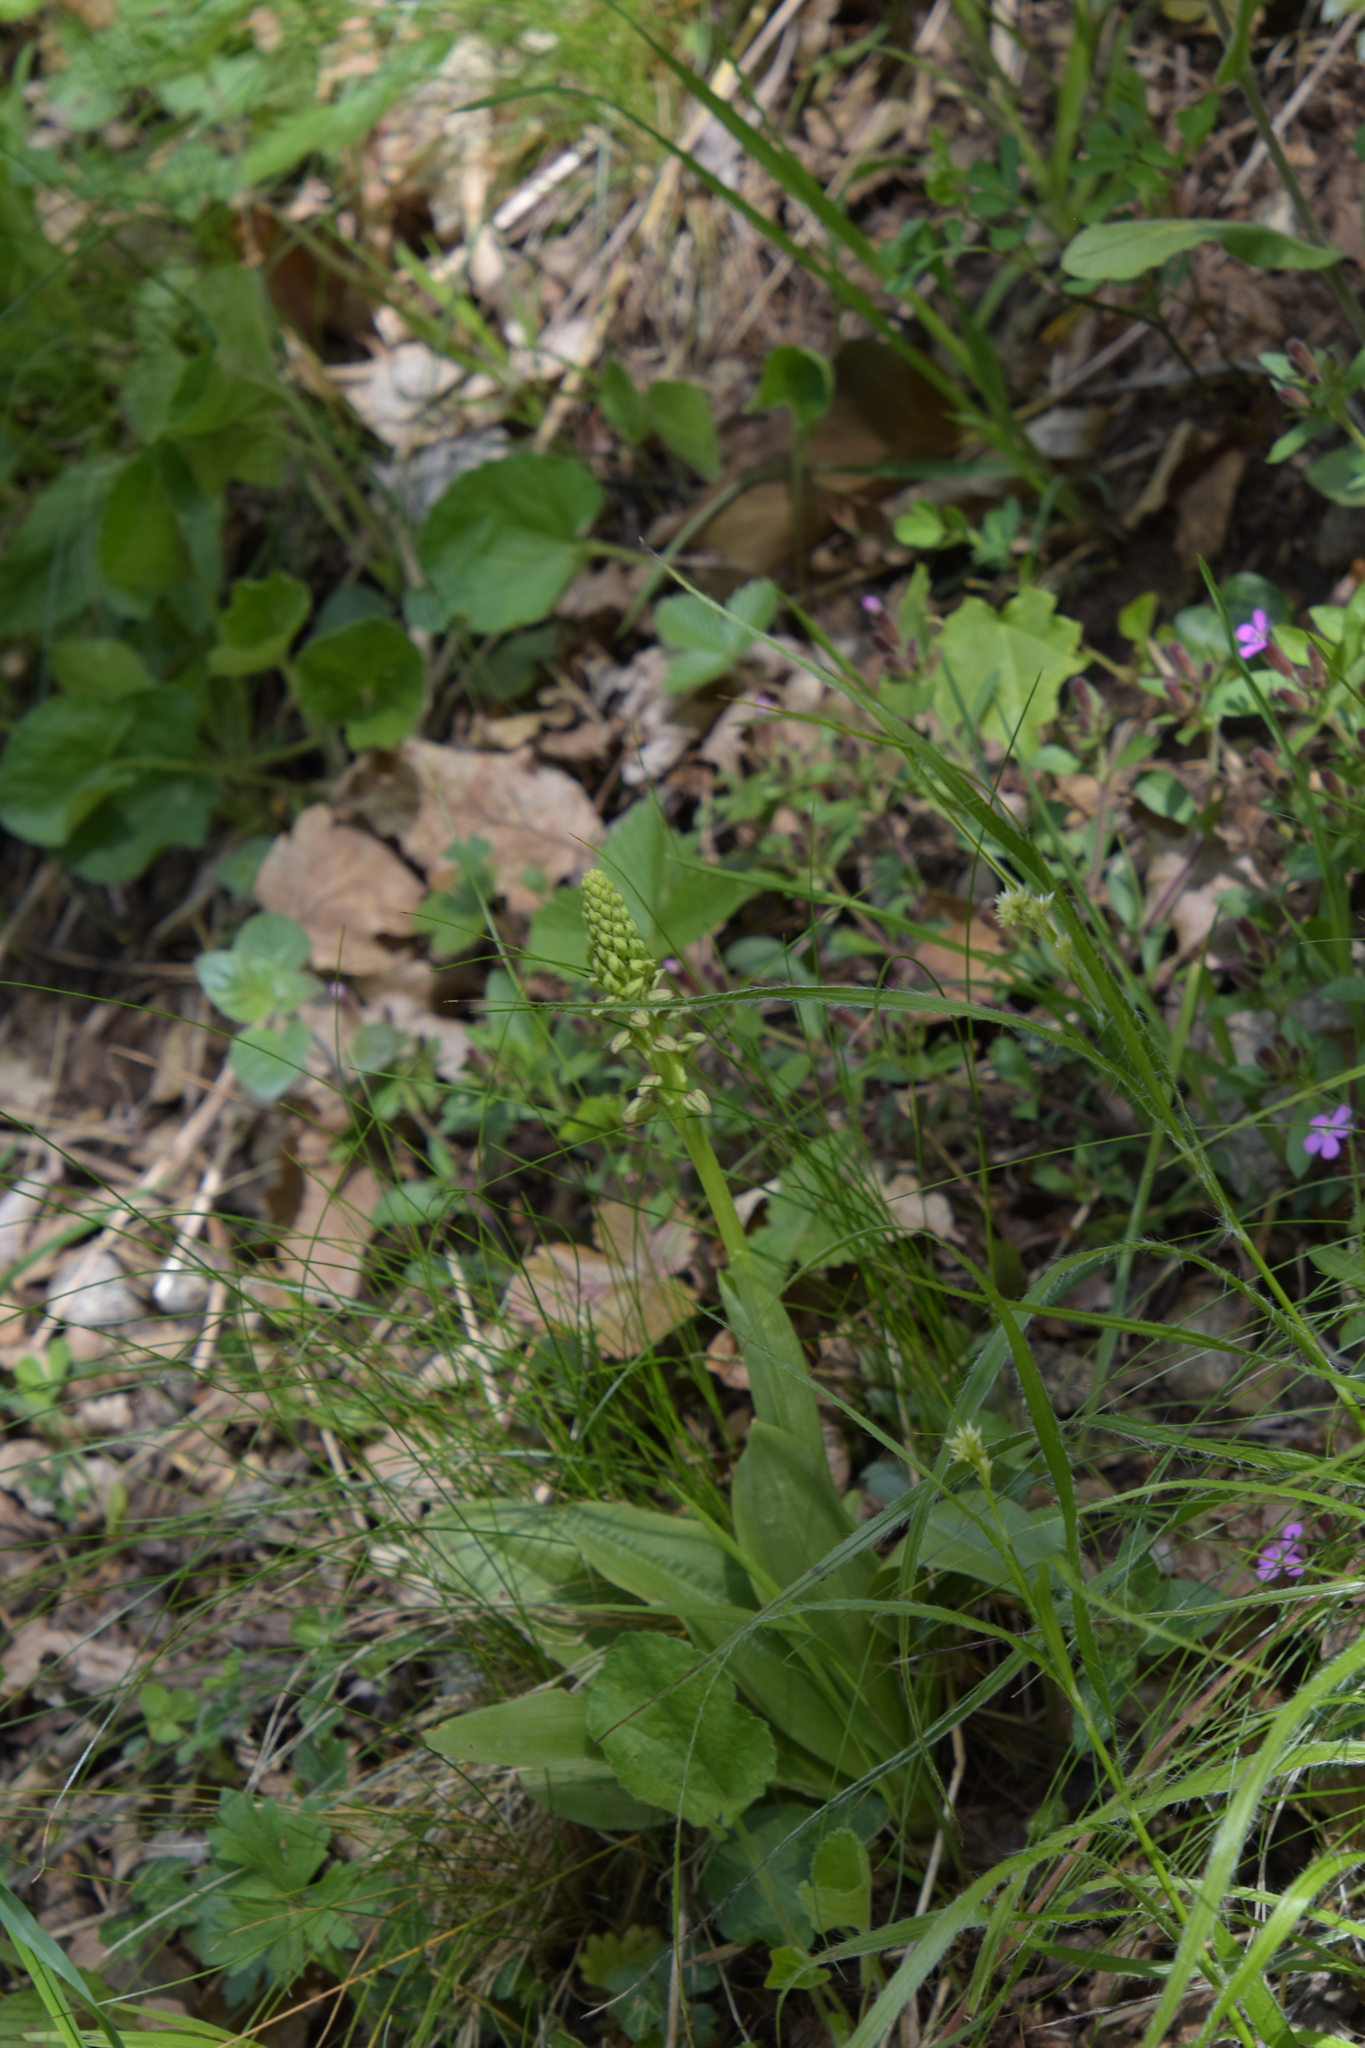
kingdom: Plantae
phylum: Tracheophyta
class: Liliopsida
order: Asparagales
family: Orchidaceae
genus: Orchis
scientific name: Orchis anthropophora
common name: Man orchid
